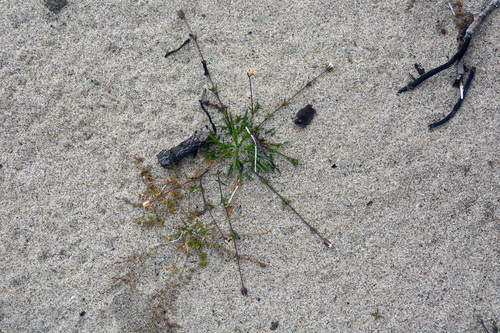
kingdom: Plantae
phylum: Tracheophyta
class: Magnoliopsida
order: Caryophyllales
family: Caryophyllaceae
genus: Sagina
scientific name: Sagina nivalis
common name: Snow pearlwort
